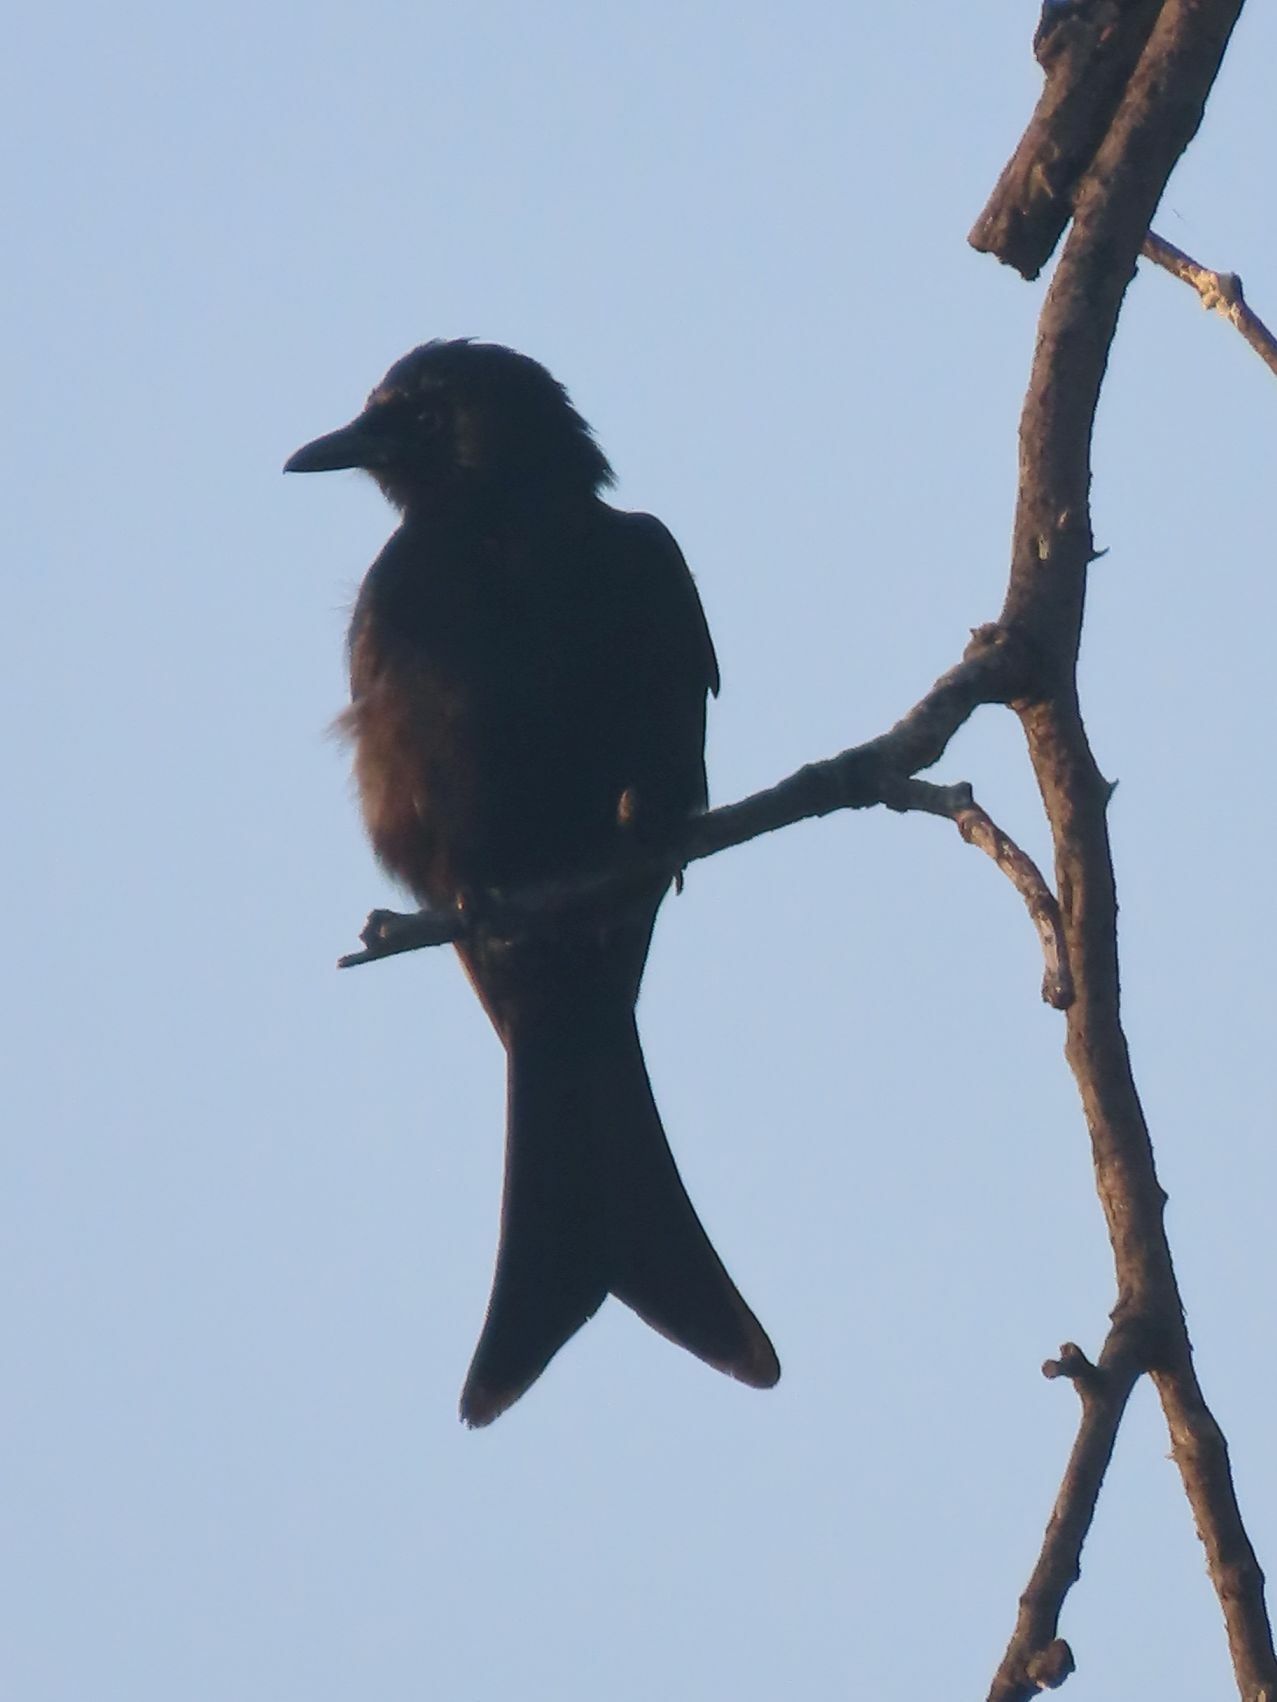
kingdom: Animalia
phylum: Chordata
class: Aves
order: Passeriformes
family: Dicruridae
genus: Dicrurus
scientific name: Dicrurus adsimilis
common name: Fork-tailed drongo
